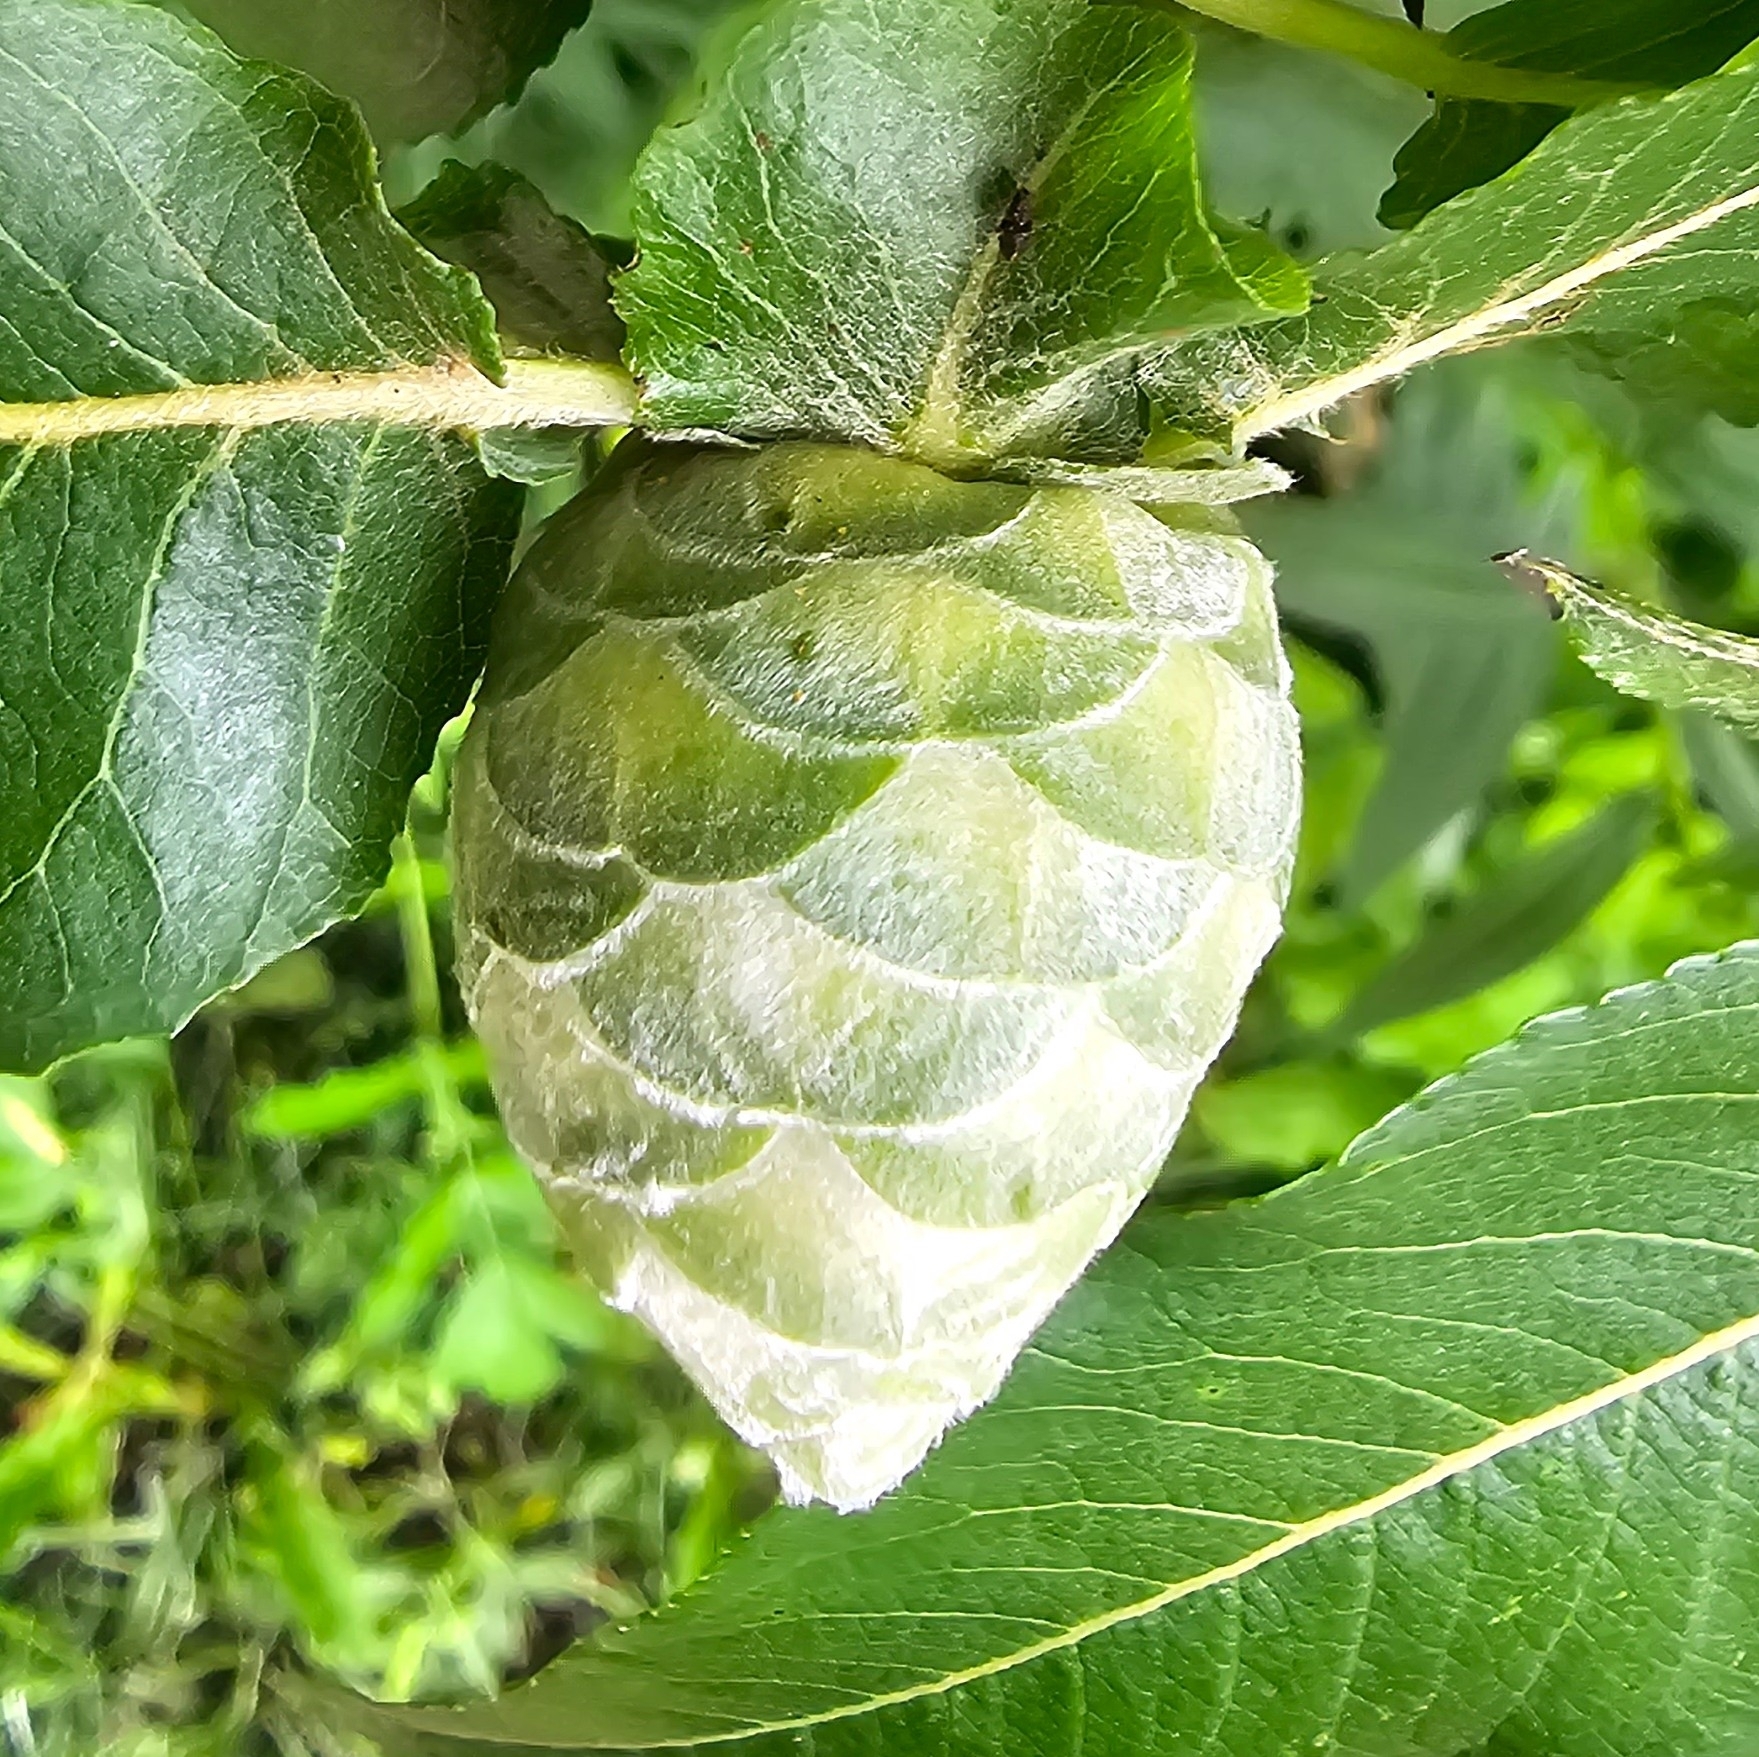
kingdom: Animalia
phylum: Arthropoda
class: Insecta
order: Diptera
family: Cecidomyiidae
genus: Rabdophaga
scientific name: Rabdophaga strobiloides
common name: Willow pinecone gall midge
